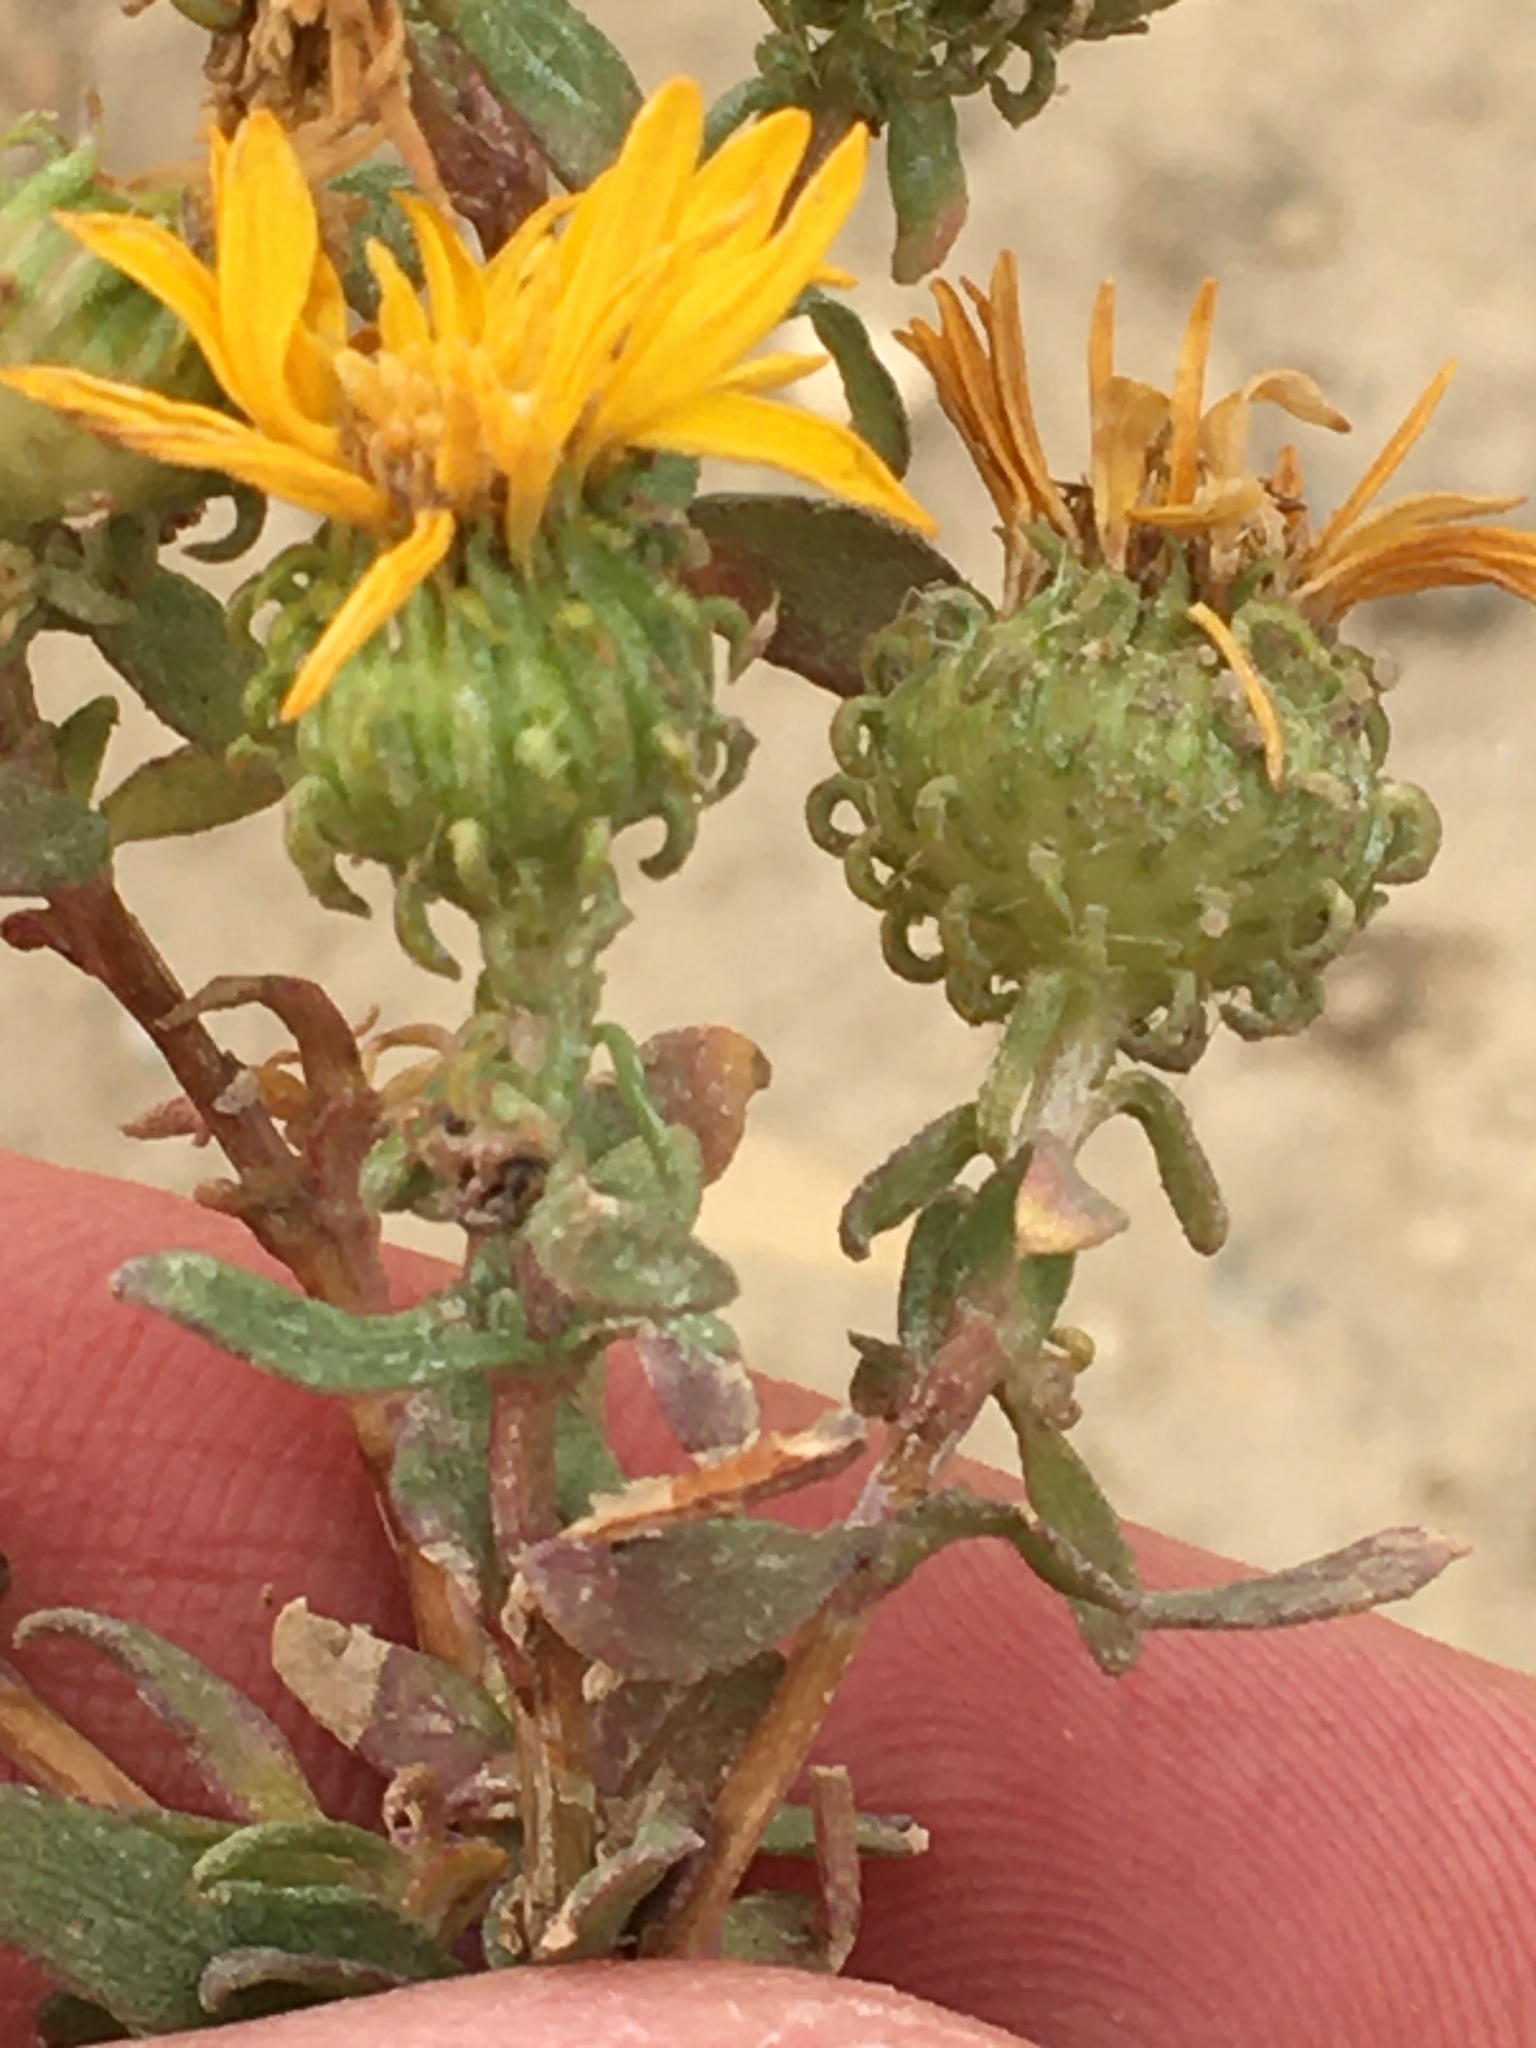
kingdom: Plantae
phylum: Tracheophyta
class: Magnoliopsida
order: Asterales
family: Asteraceae
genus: Grindelia
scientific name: Grindelia squarrosa
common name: Curly-cup gumweed
